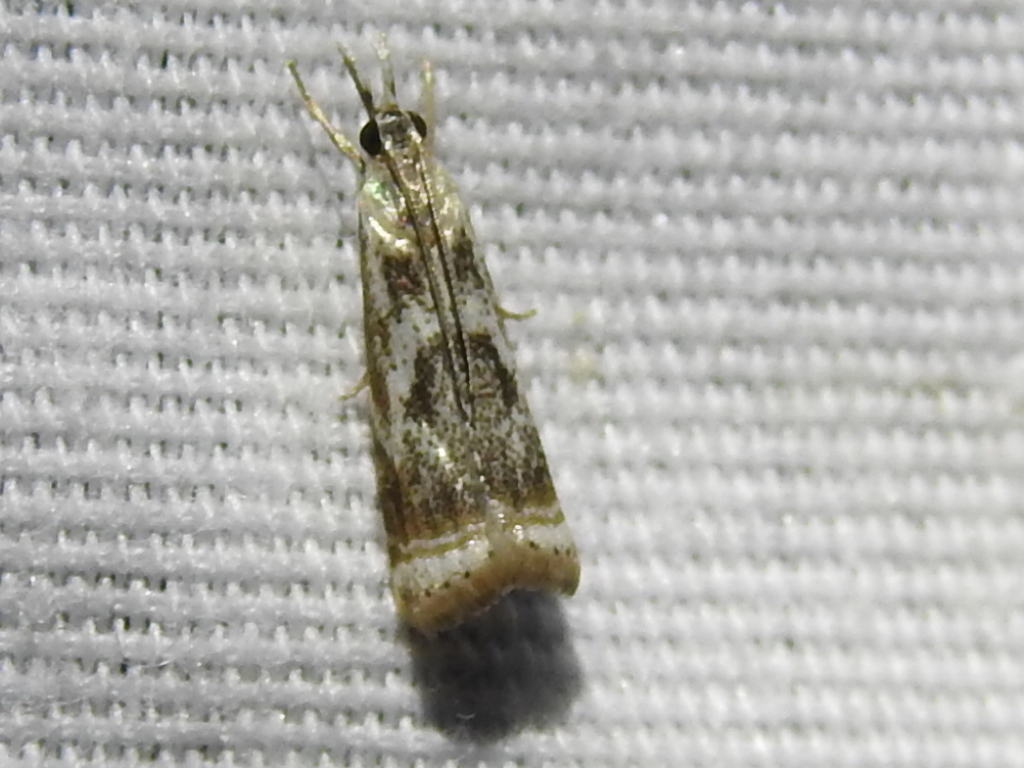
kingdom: Animalia
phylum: Arthropoda
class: Insecta
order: Lepidoptera
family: Crambidae
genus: Microcrambus
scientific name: Microcrambus elegans
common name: Elegant grass-veneer
